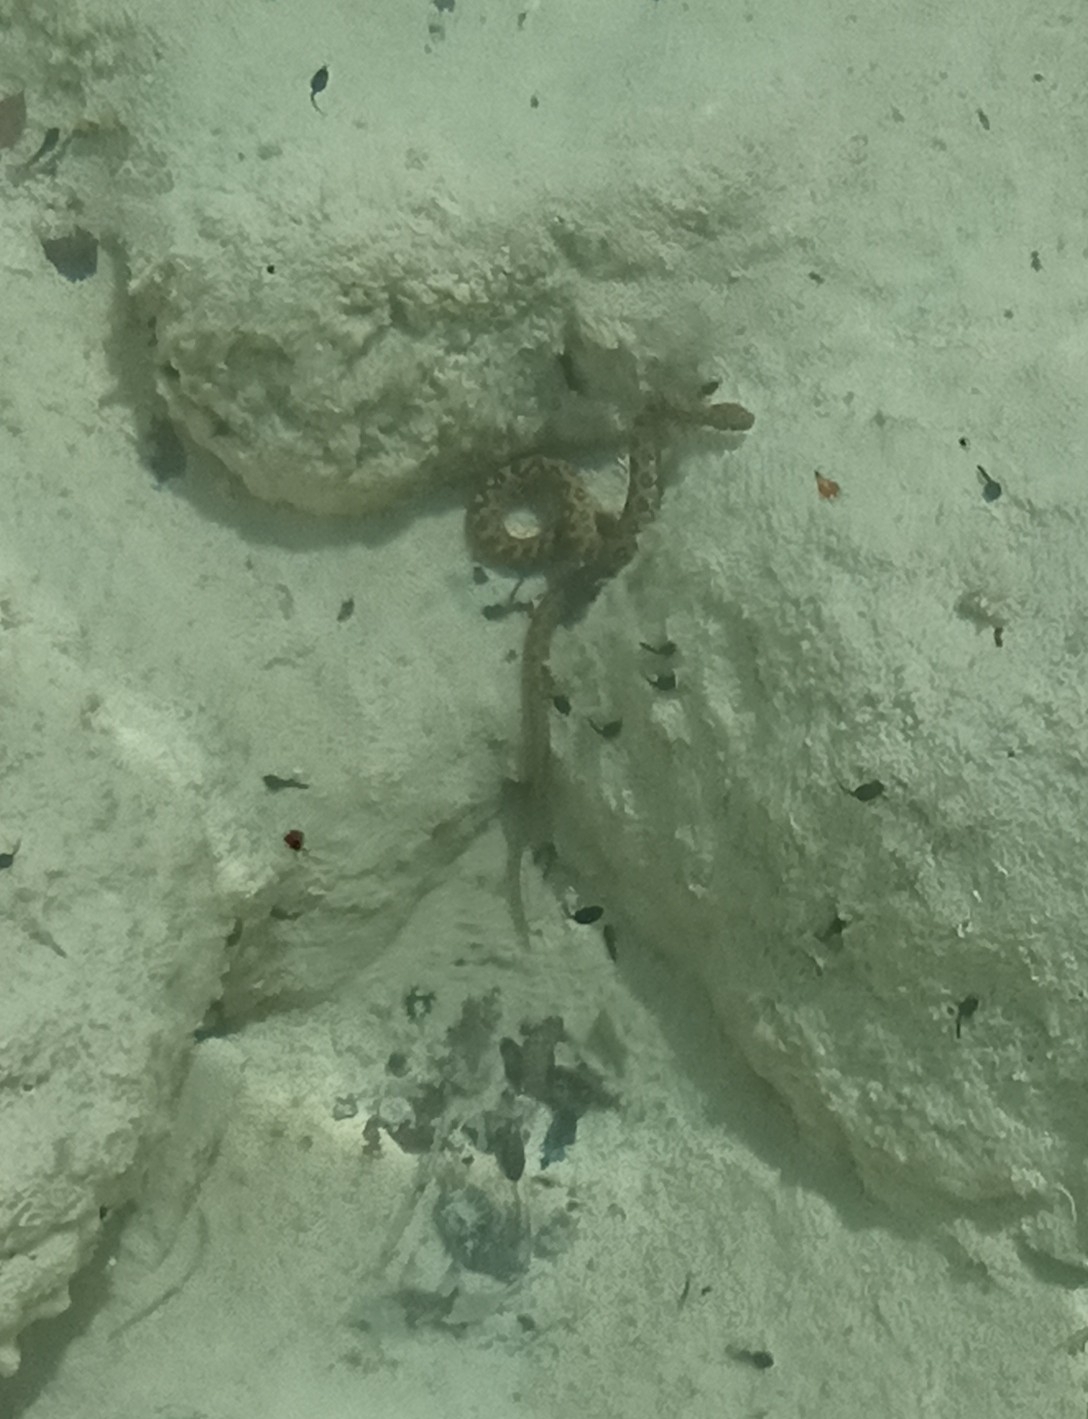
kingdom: Animalia
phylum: Chordata
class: Squamata
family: Colubridae
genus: Natrix
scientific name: Natrix maura
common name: Viperine water snake
